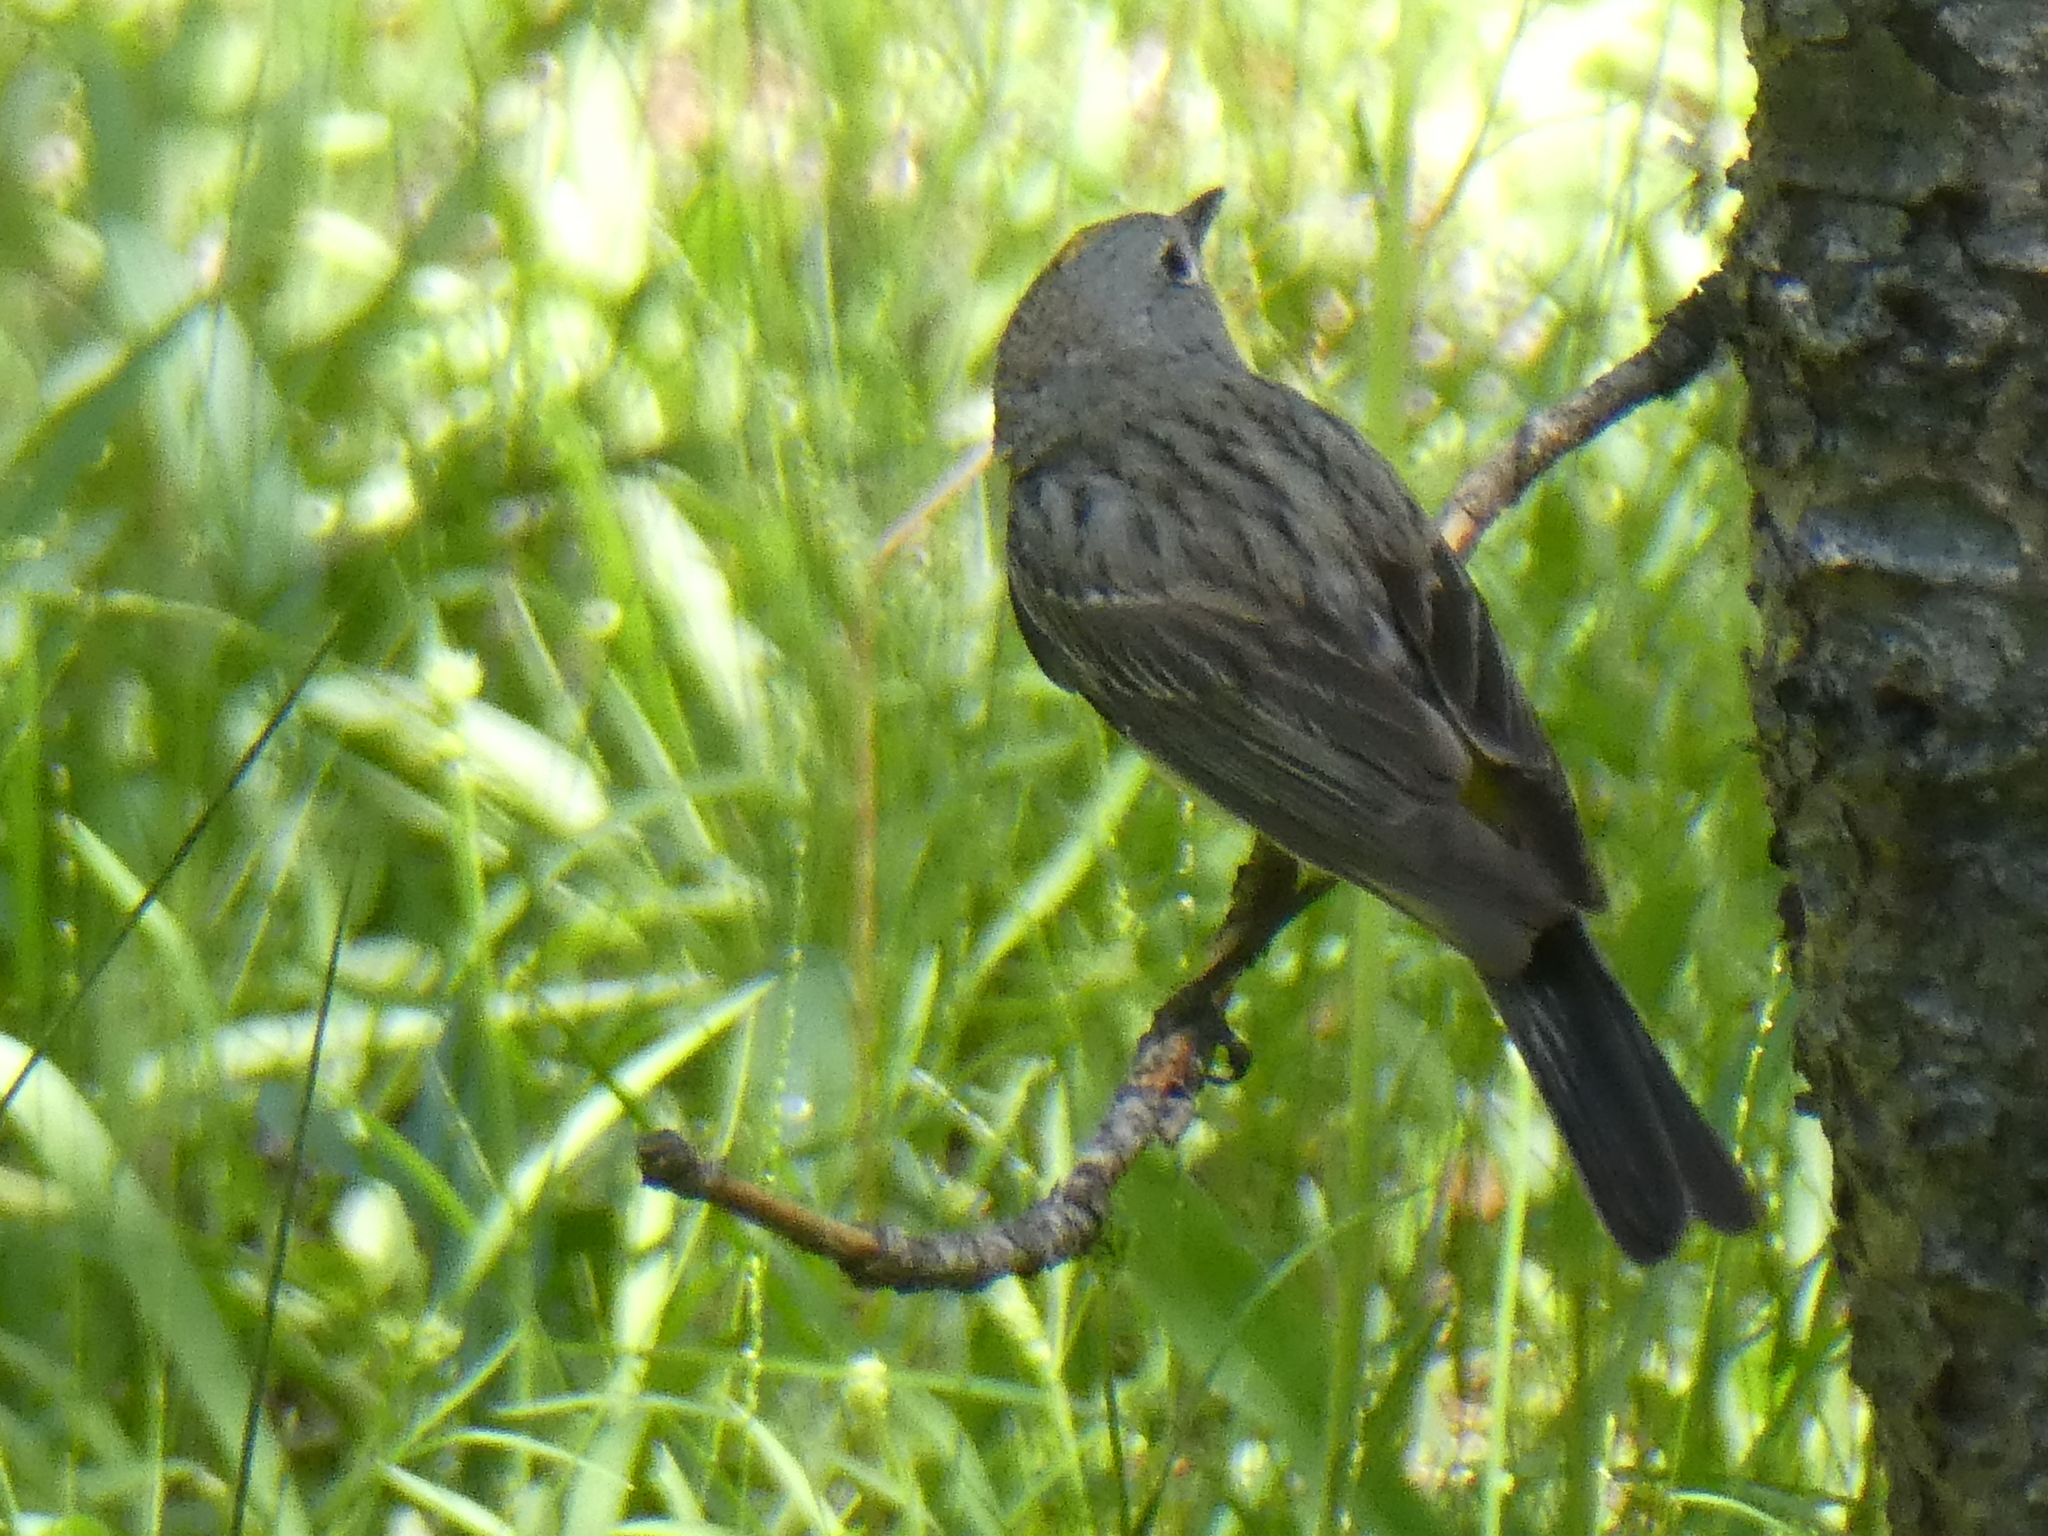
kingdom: Animalia
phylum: Chordata
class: Aves
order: Passeriformes
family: Parulidae
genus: Setophaga
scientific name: Setophaga coronata
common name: Myrtle warbler
